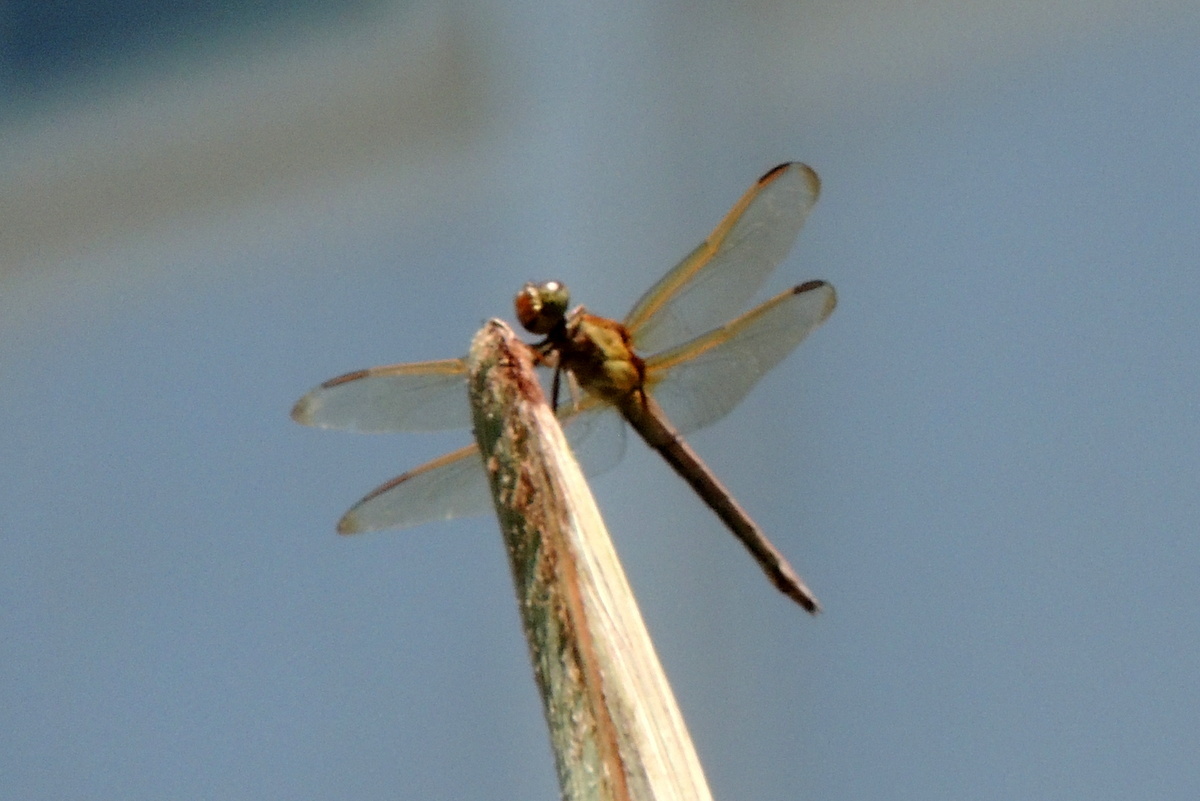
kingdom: Animalia
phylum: Arthropoda
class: Insecta
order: Odonata
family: Libellulidae
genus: Libellula
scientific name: Libellula needhami
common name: Needham's skimmer
